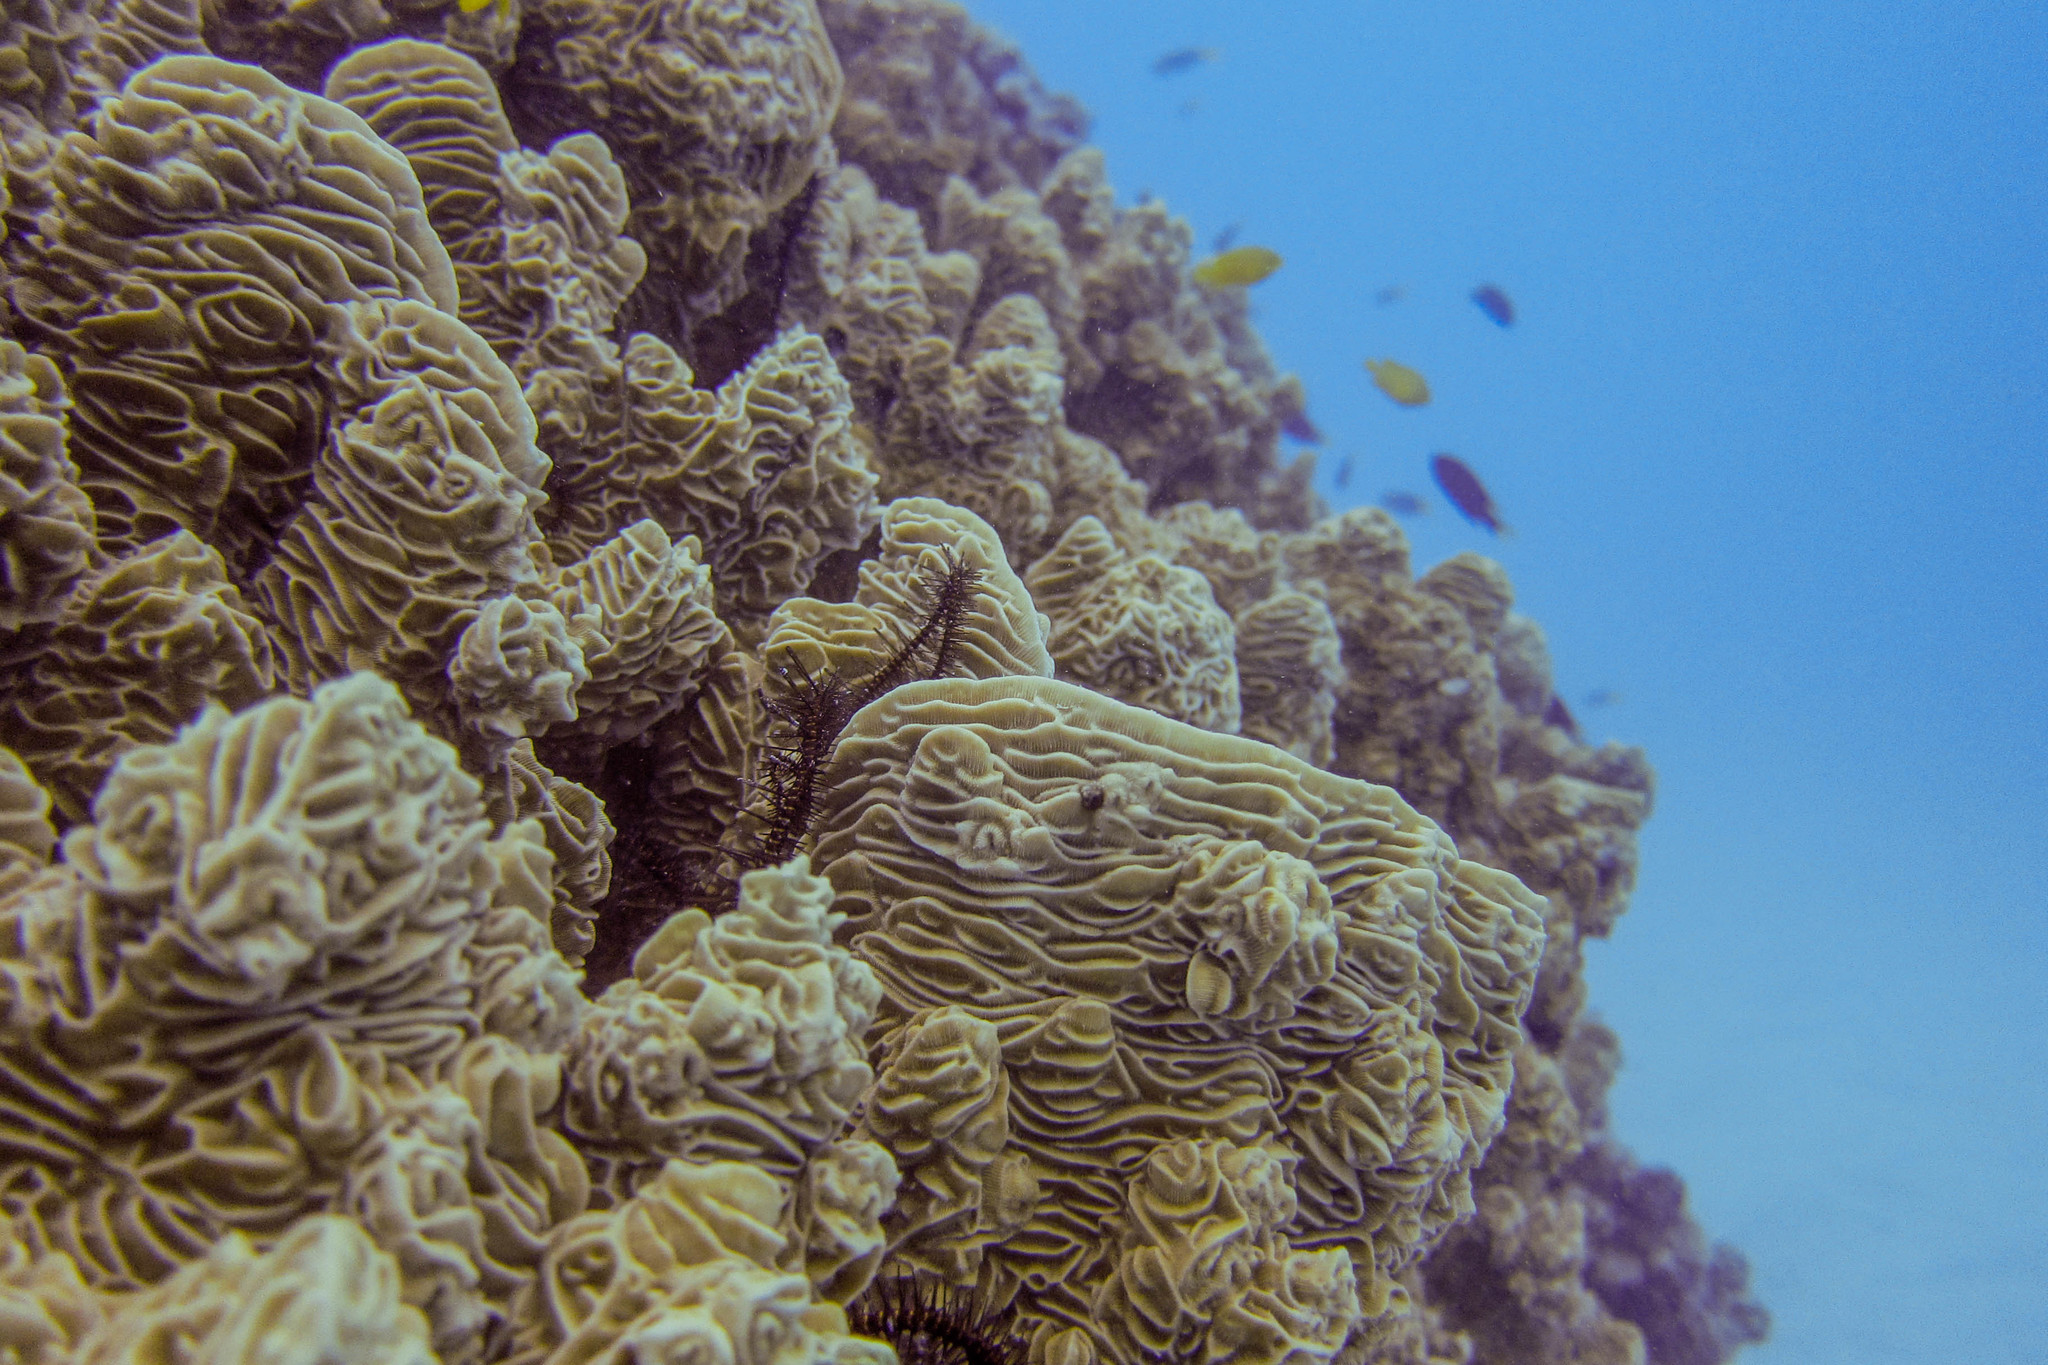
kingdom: Animalia
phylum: Cnidaria
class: Anthozoa
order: Scleractinia
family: Pachyseridae
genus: Pachyseris
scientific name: Pachyseris rugosa
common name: Serpent coral
